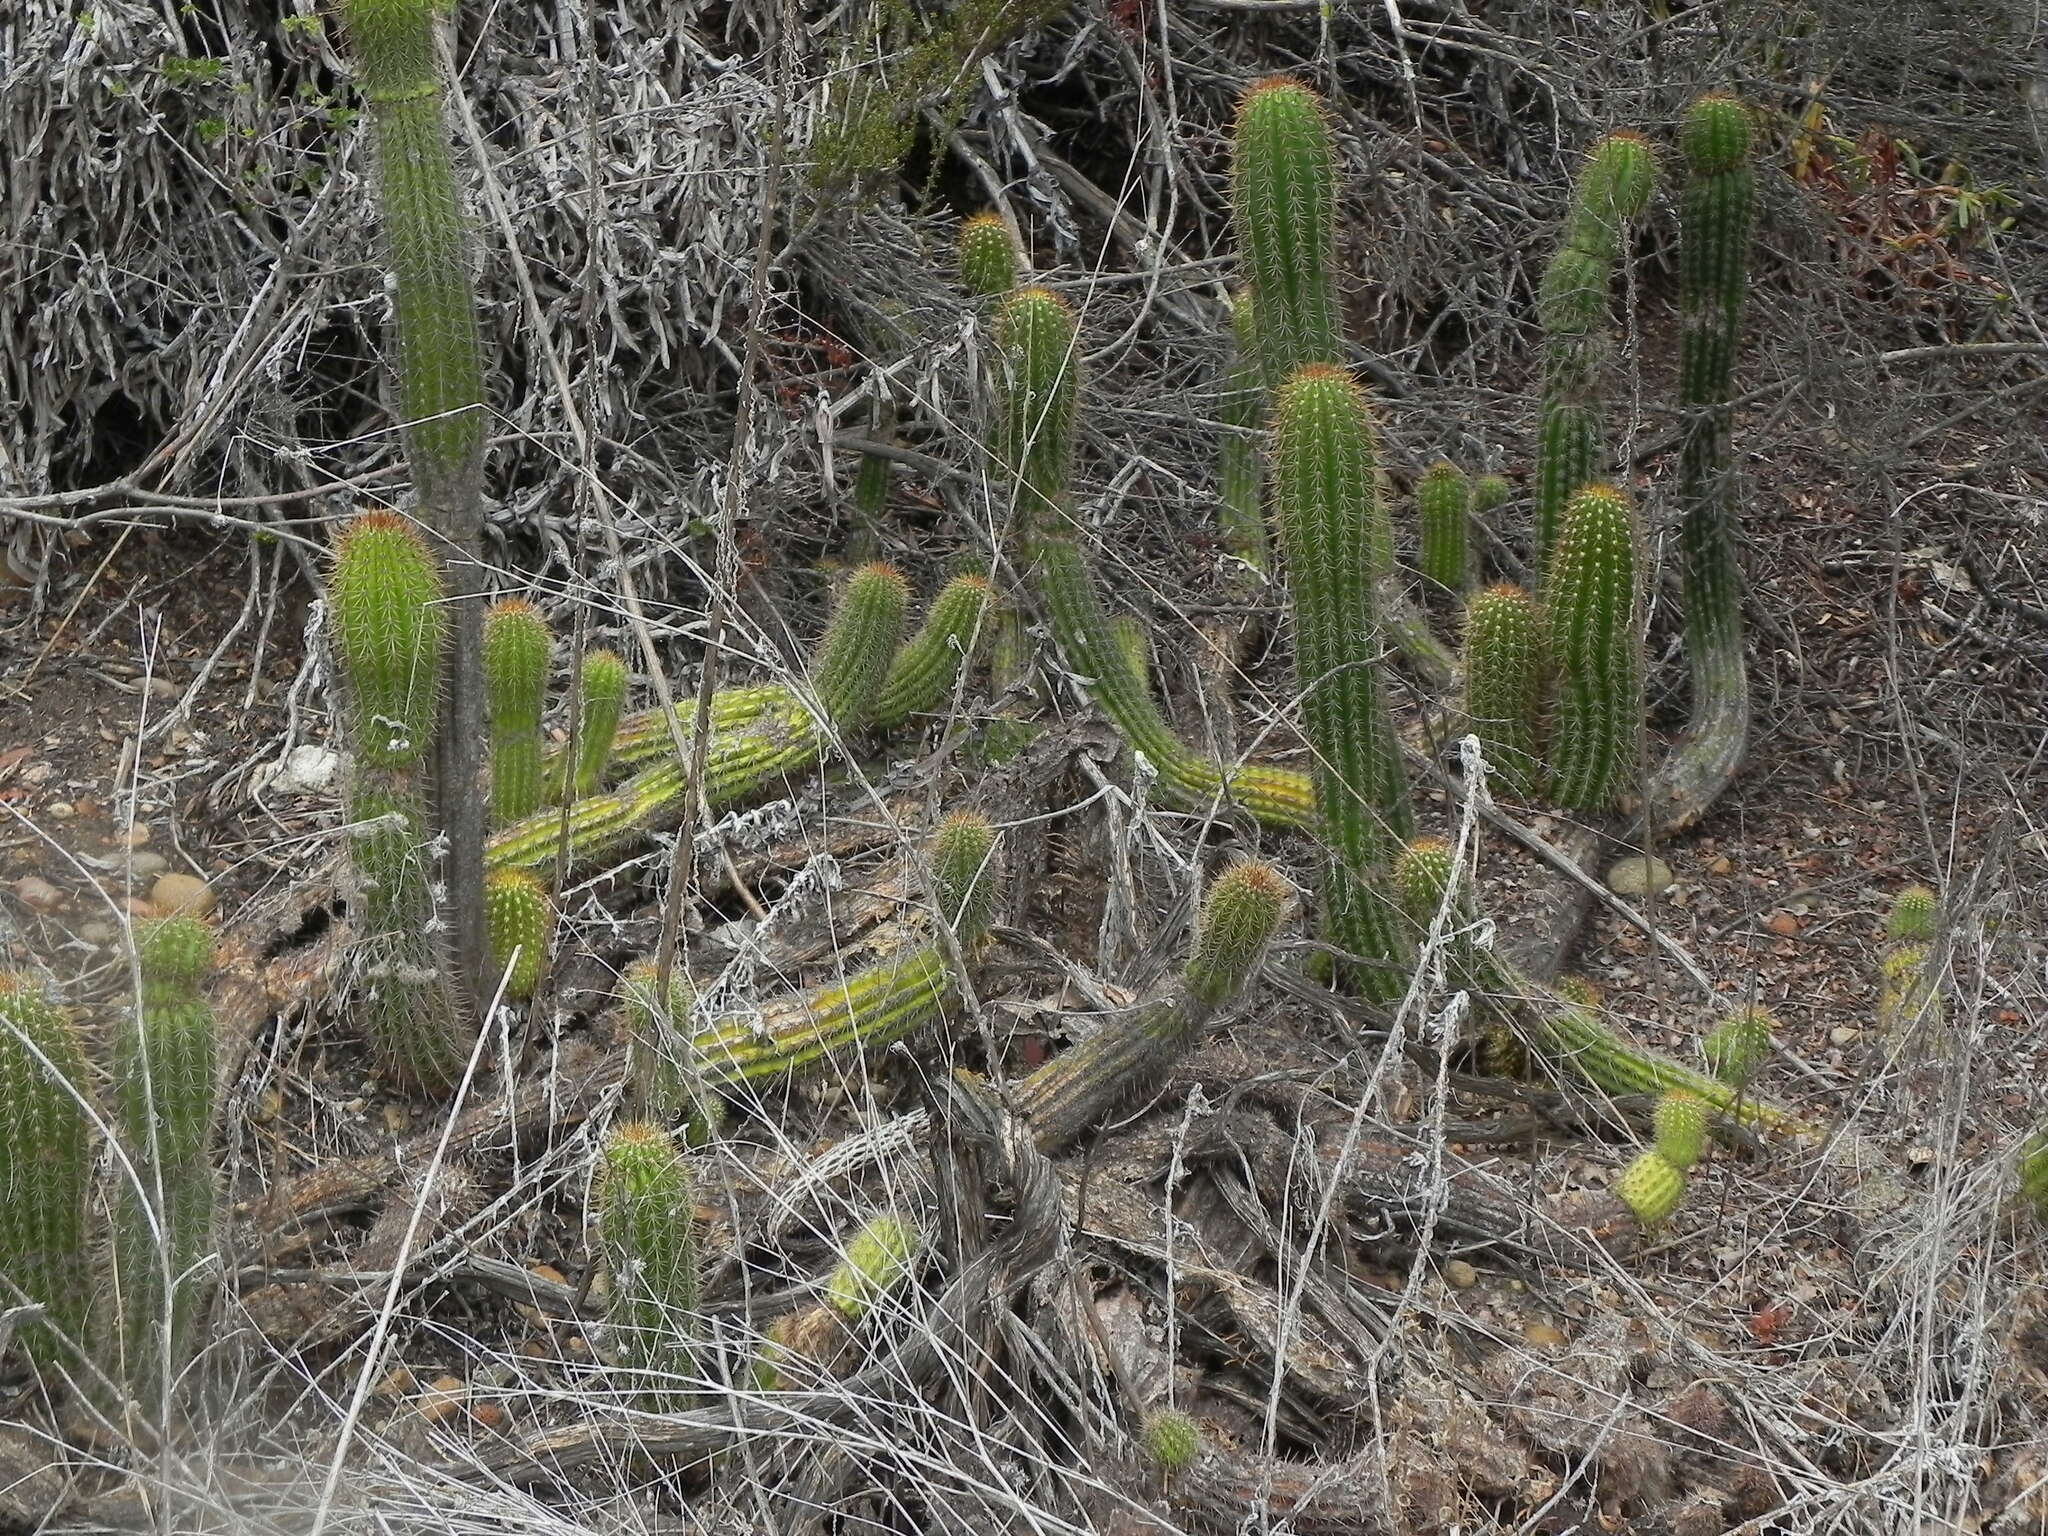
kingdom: Plantae
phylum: Tracheophyta
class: Magnoliopsida
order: Caryophyllales
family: Cactaceae
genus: Soehrensia
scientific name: Soehrensia spachiana
